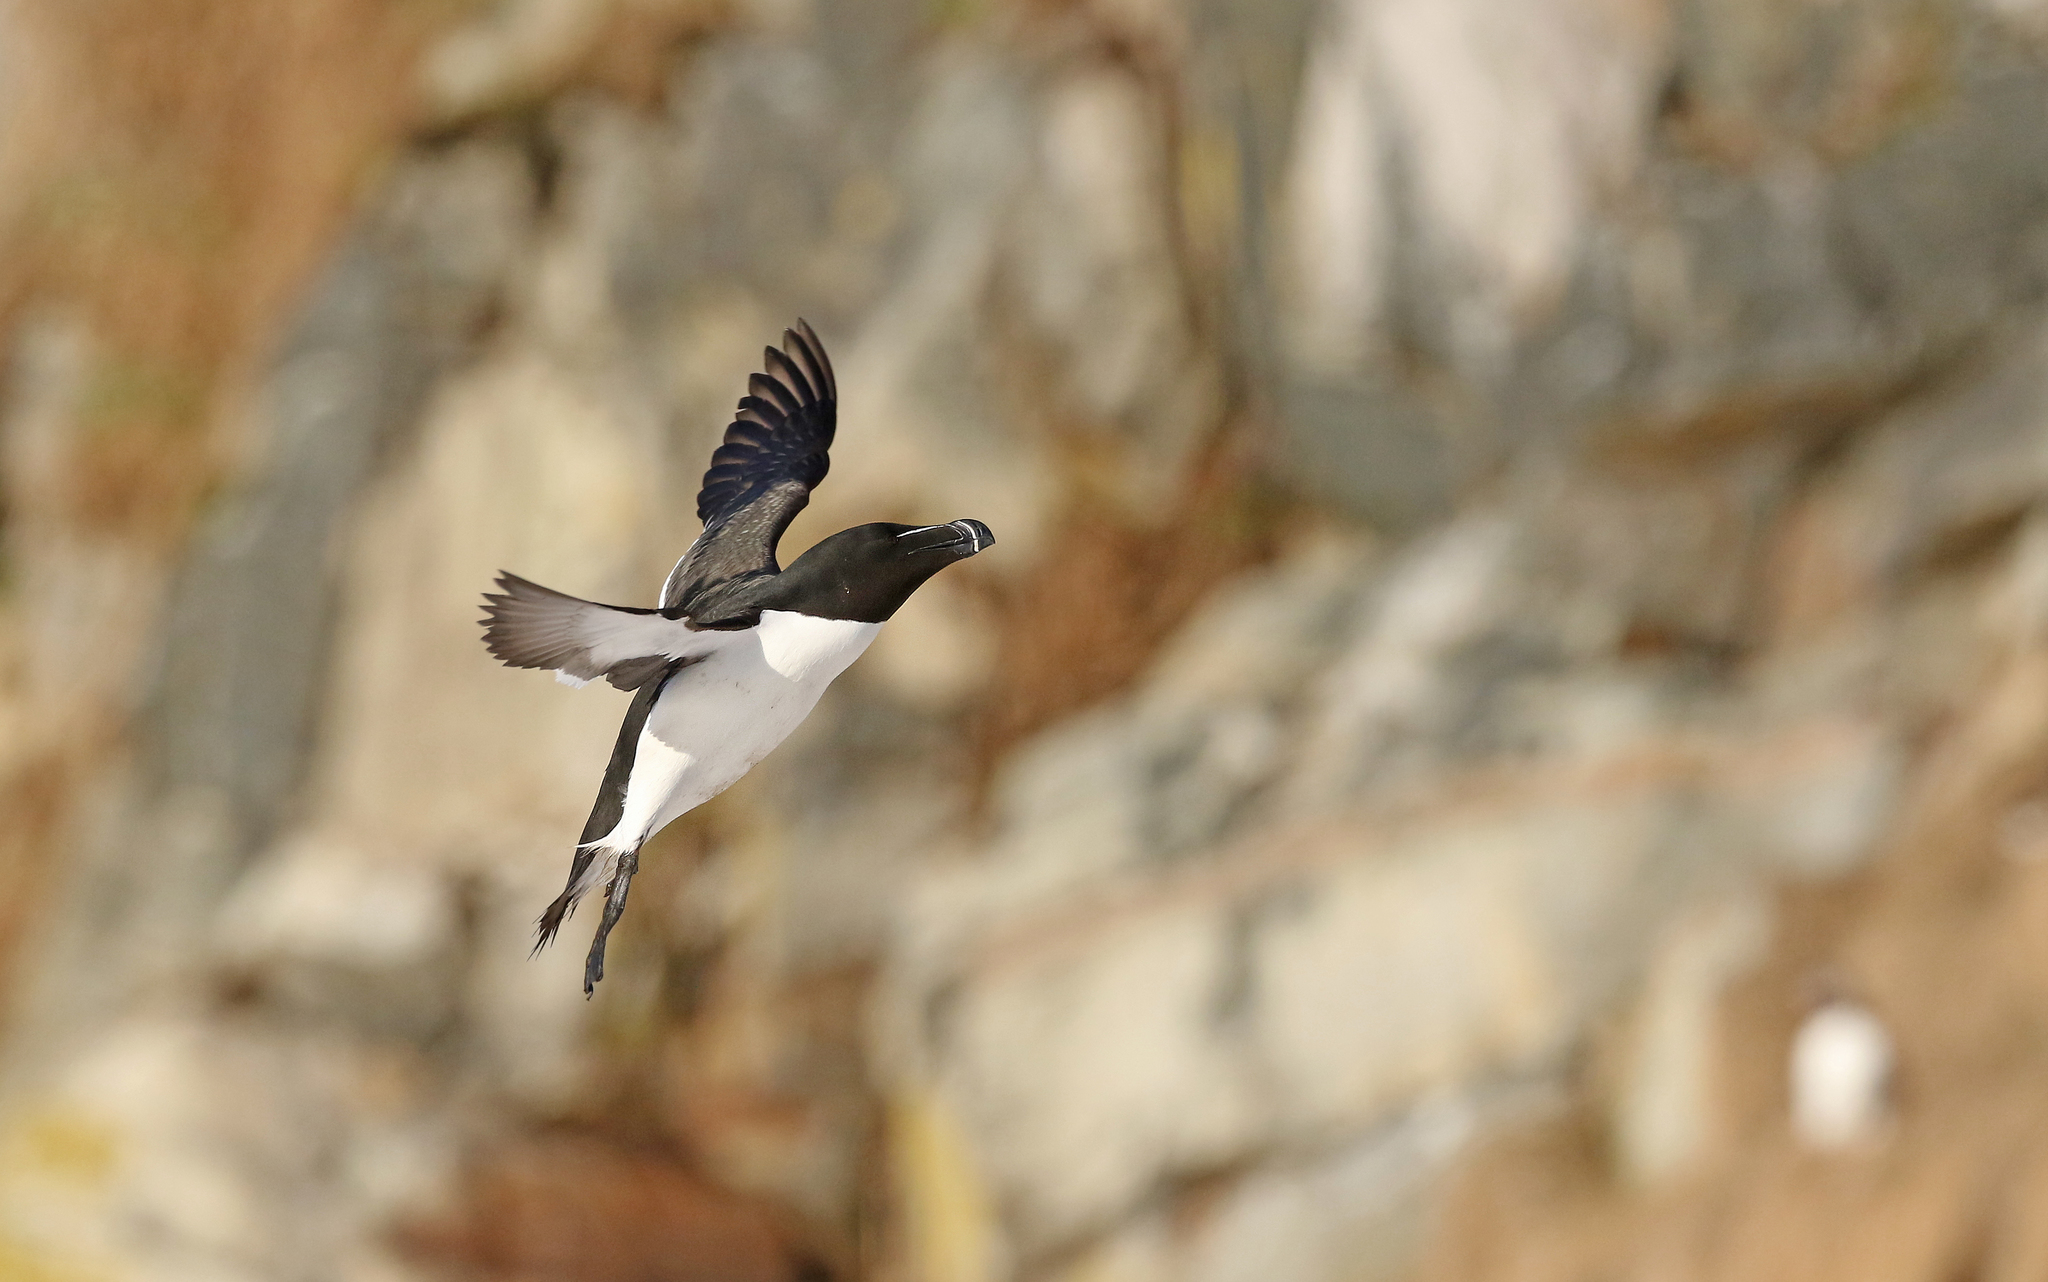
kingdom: Animalia
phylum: Chordata
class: Aves
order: Charadriiformes
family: Alcidae
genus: Alca
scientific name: Alca torda
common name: Razorbill
